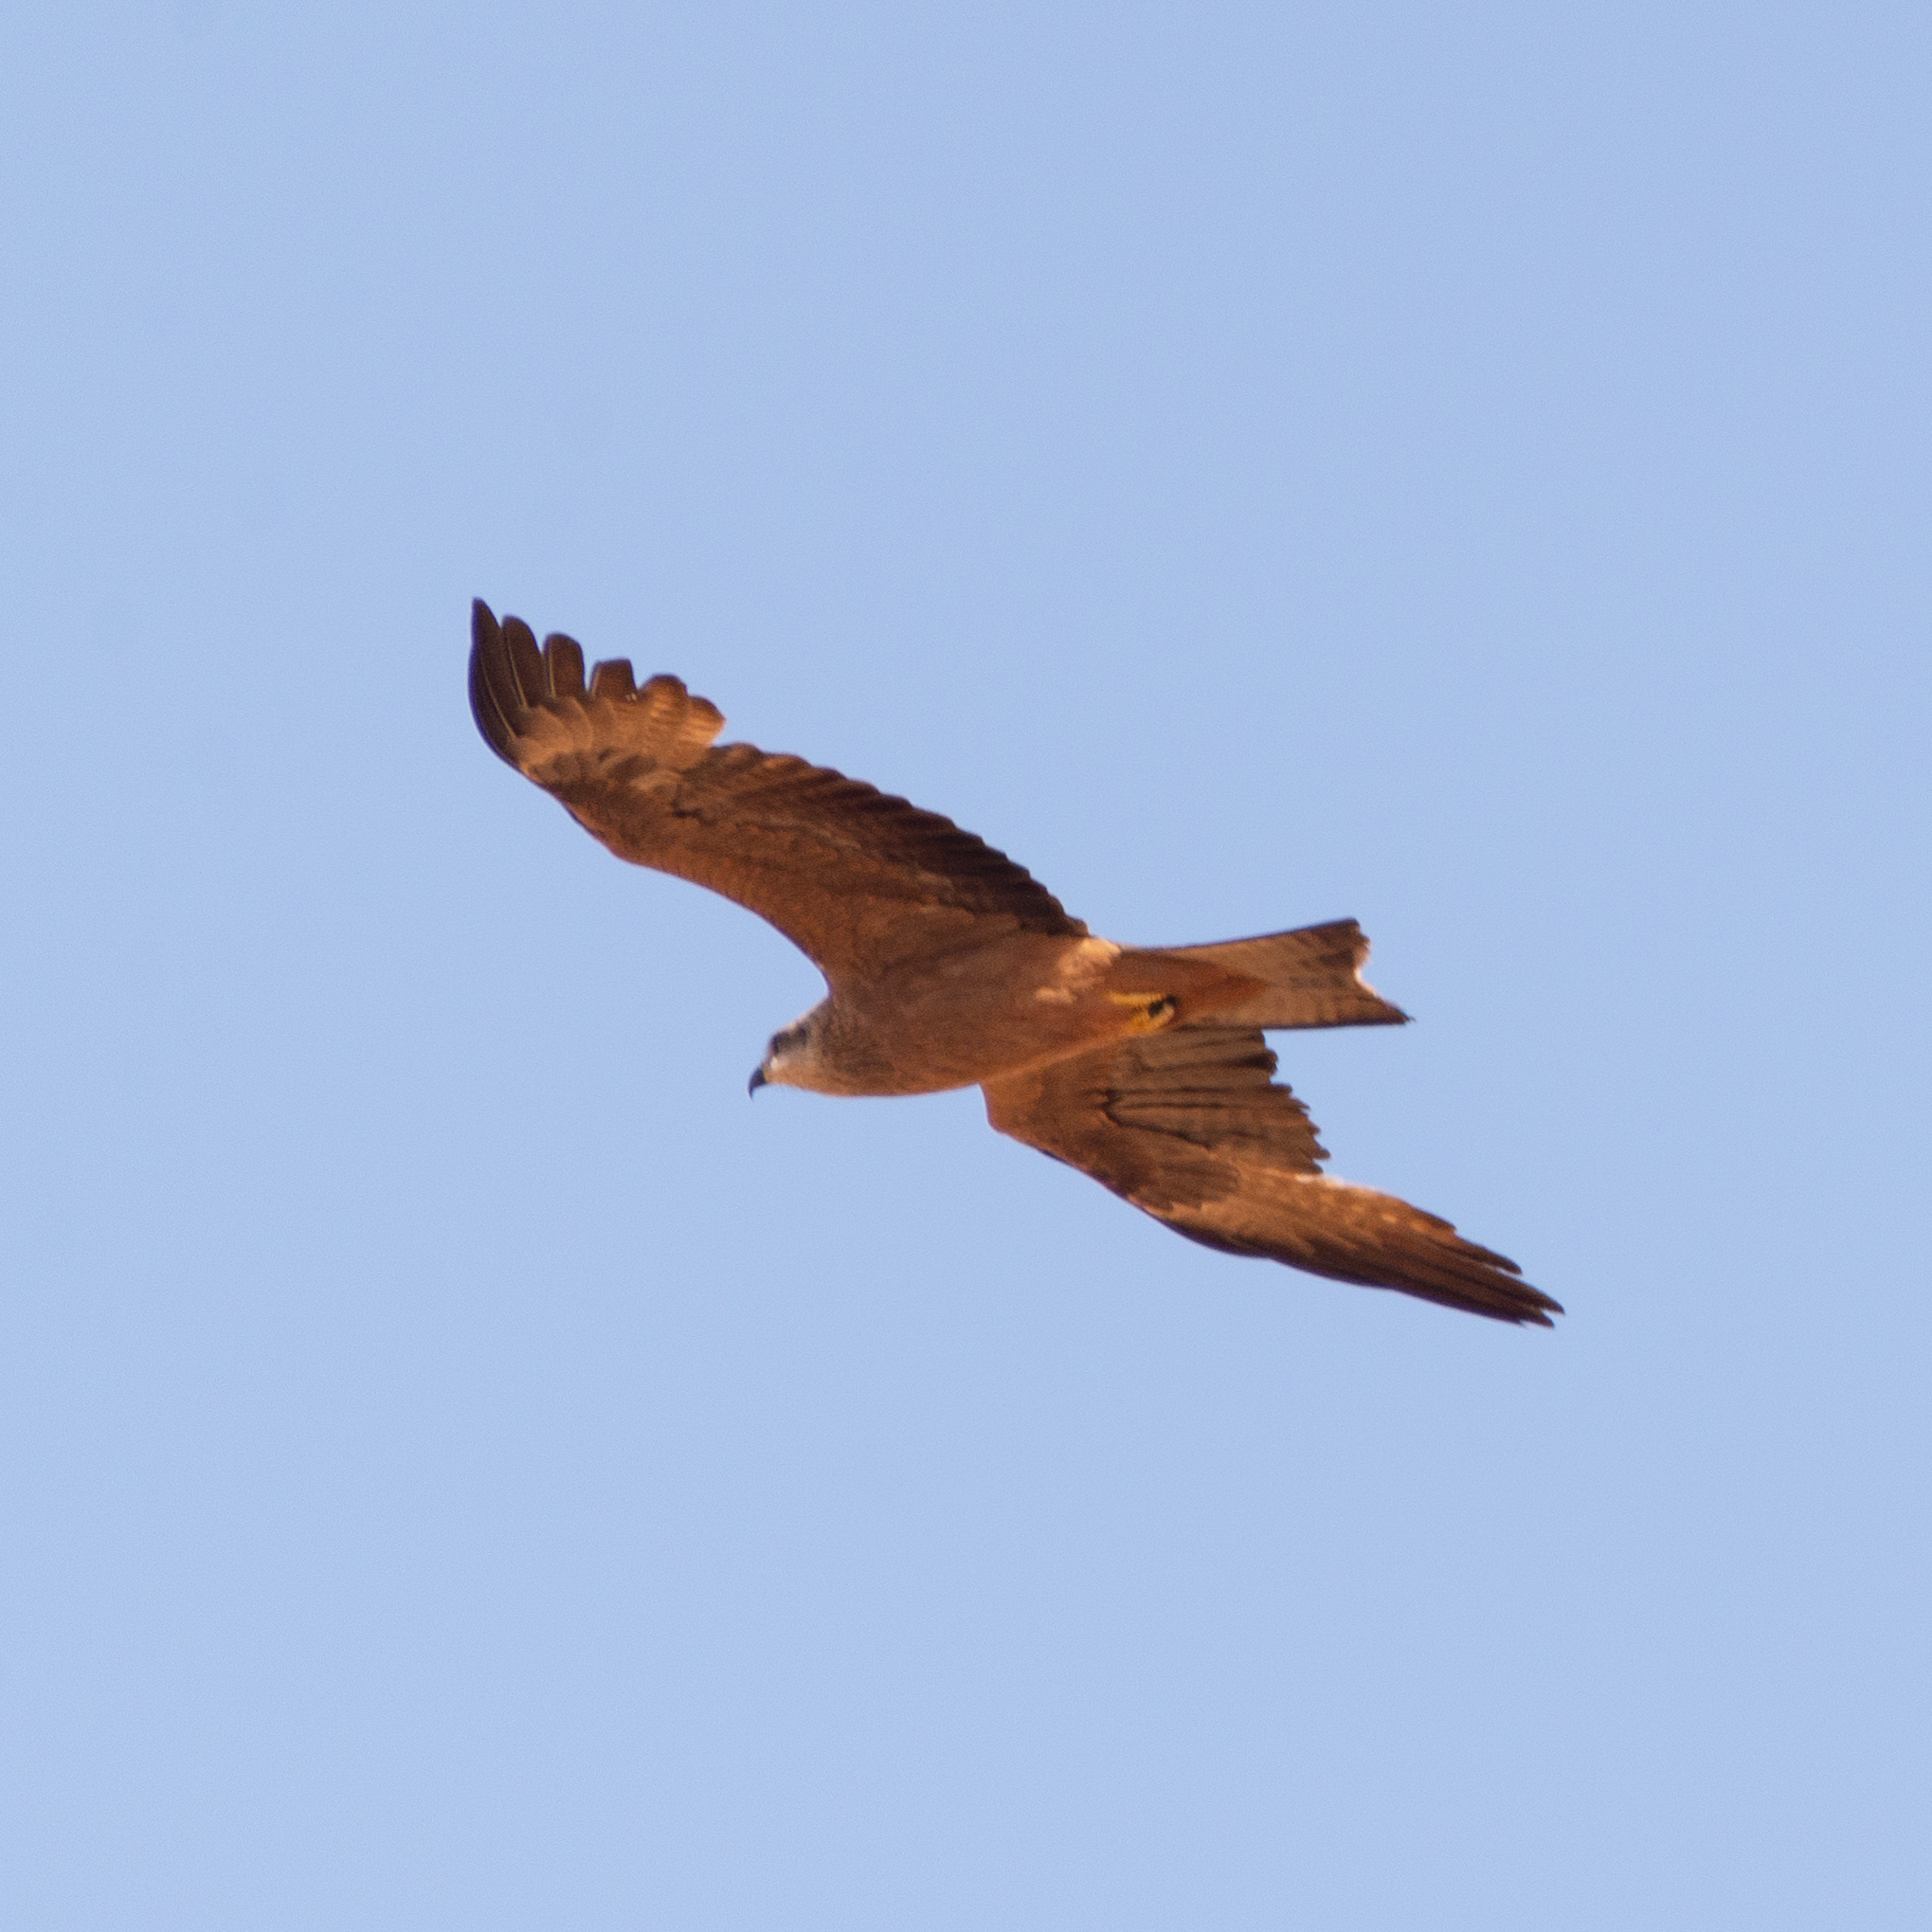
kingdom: Animalia
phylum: Chordata
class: Aves
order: Accipitriformes
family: Accipitridae
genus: Milvus
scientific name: Milvus migrans
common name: Black kite
